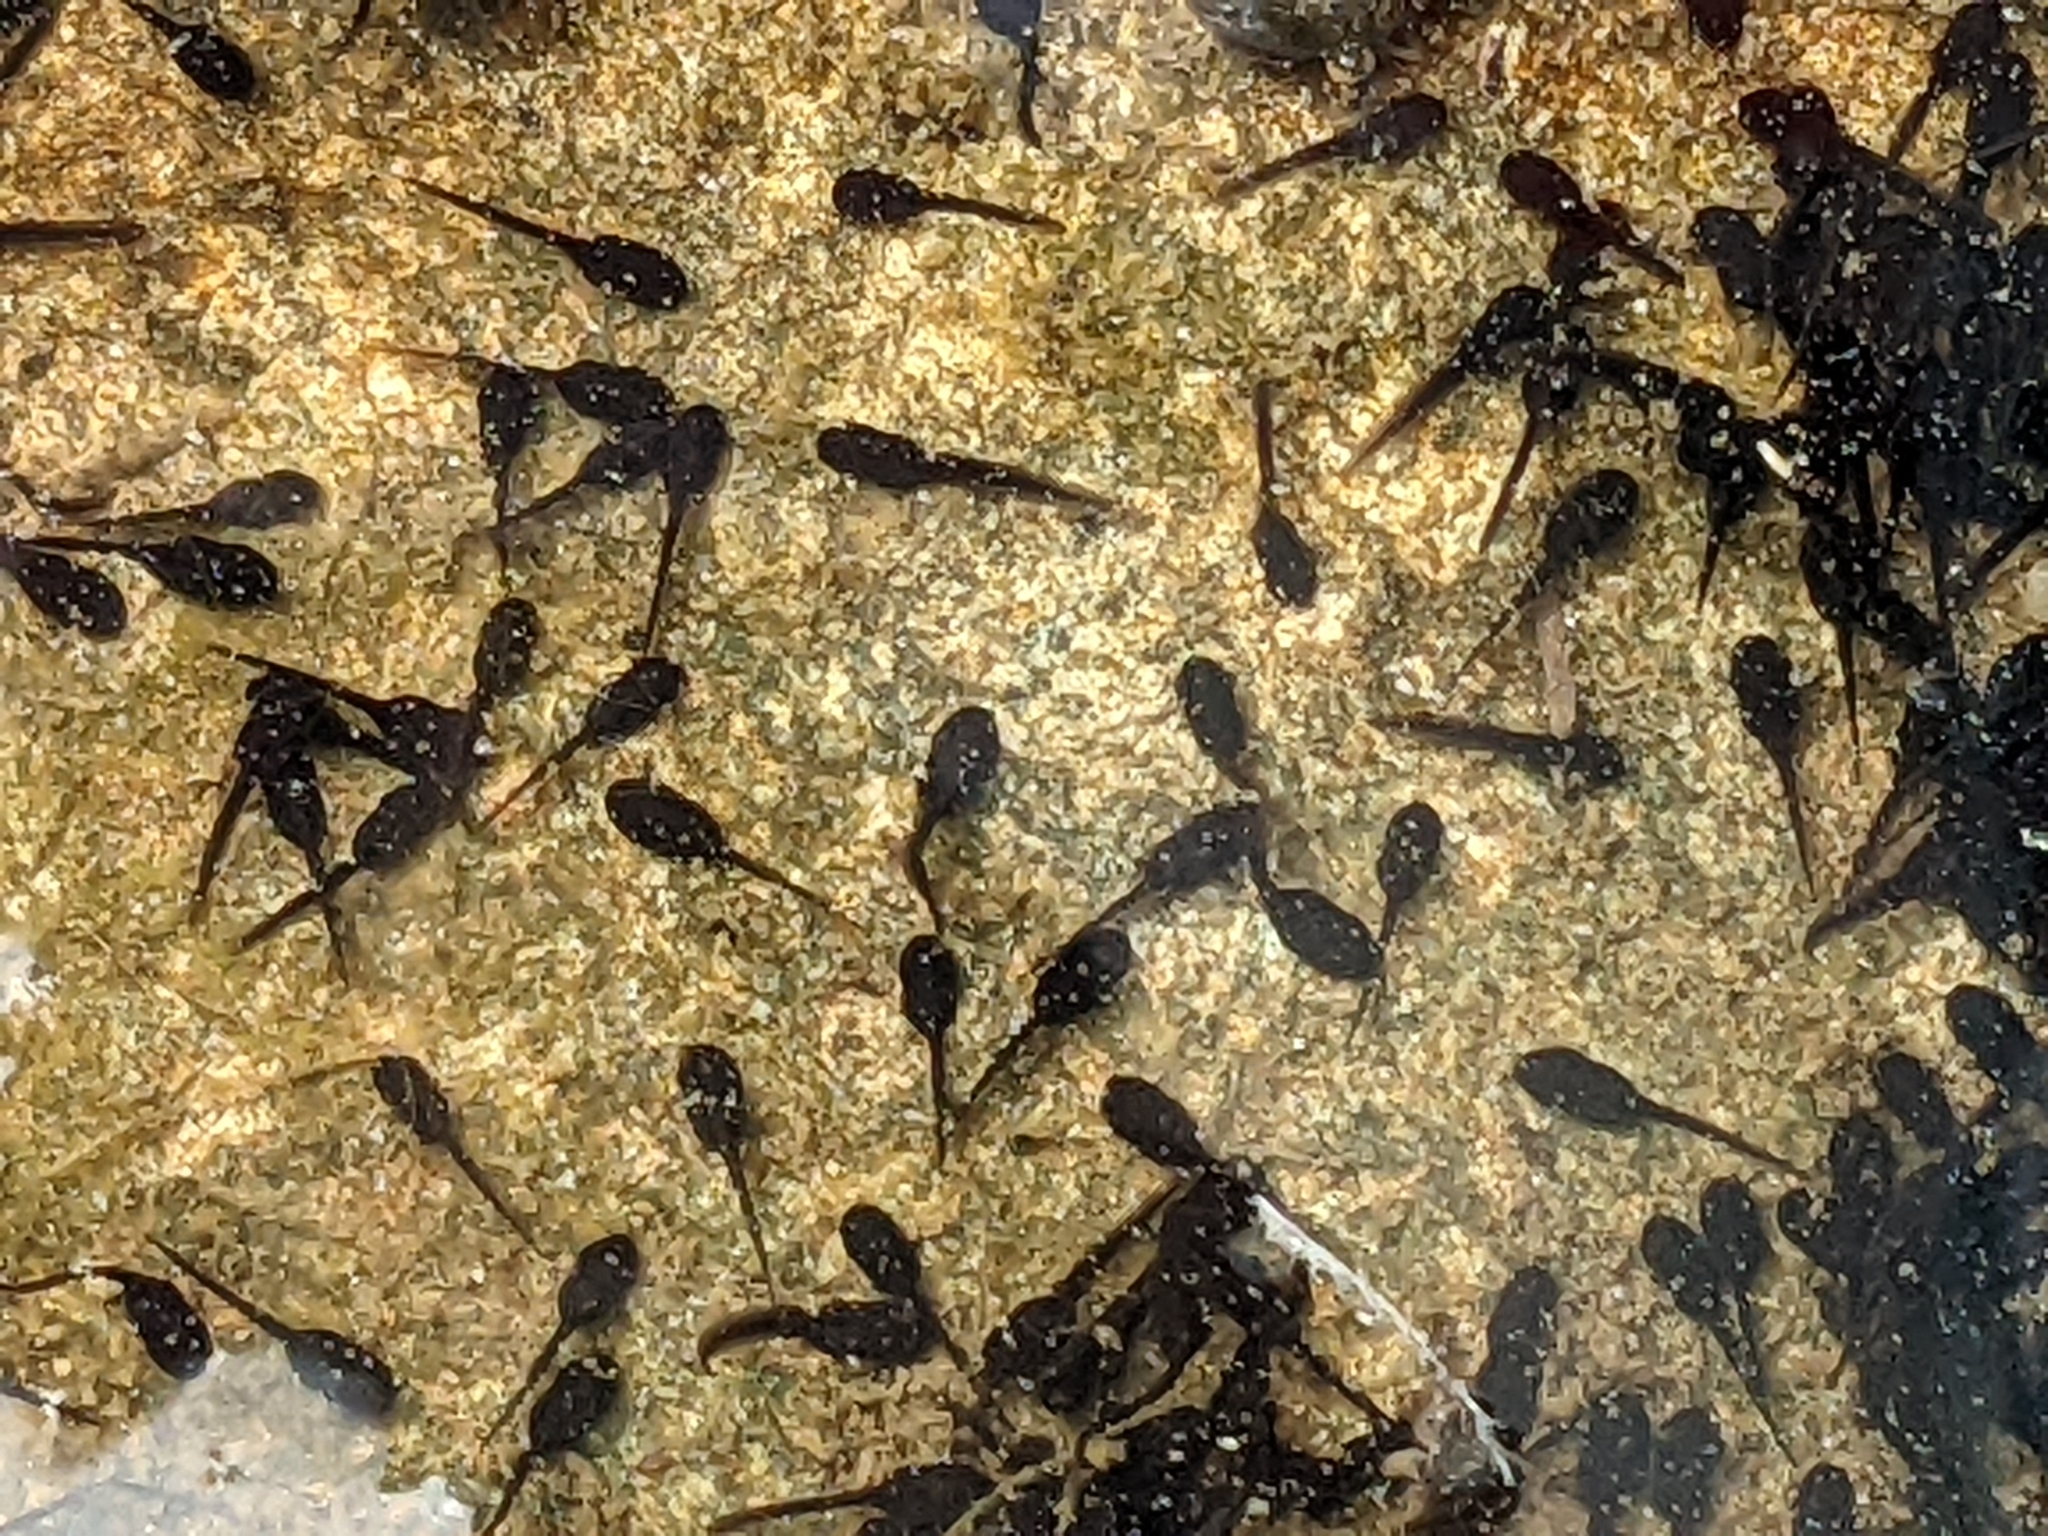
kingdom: Animalia
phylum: Chordata
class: Amphibia
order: Anura
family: Bufonidae
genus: Anaxyrus
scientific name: Anaxyrus americanus
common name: American toad
